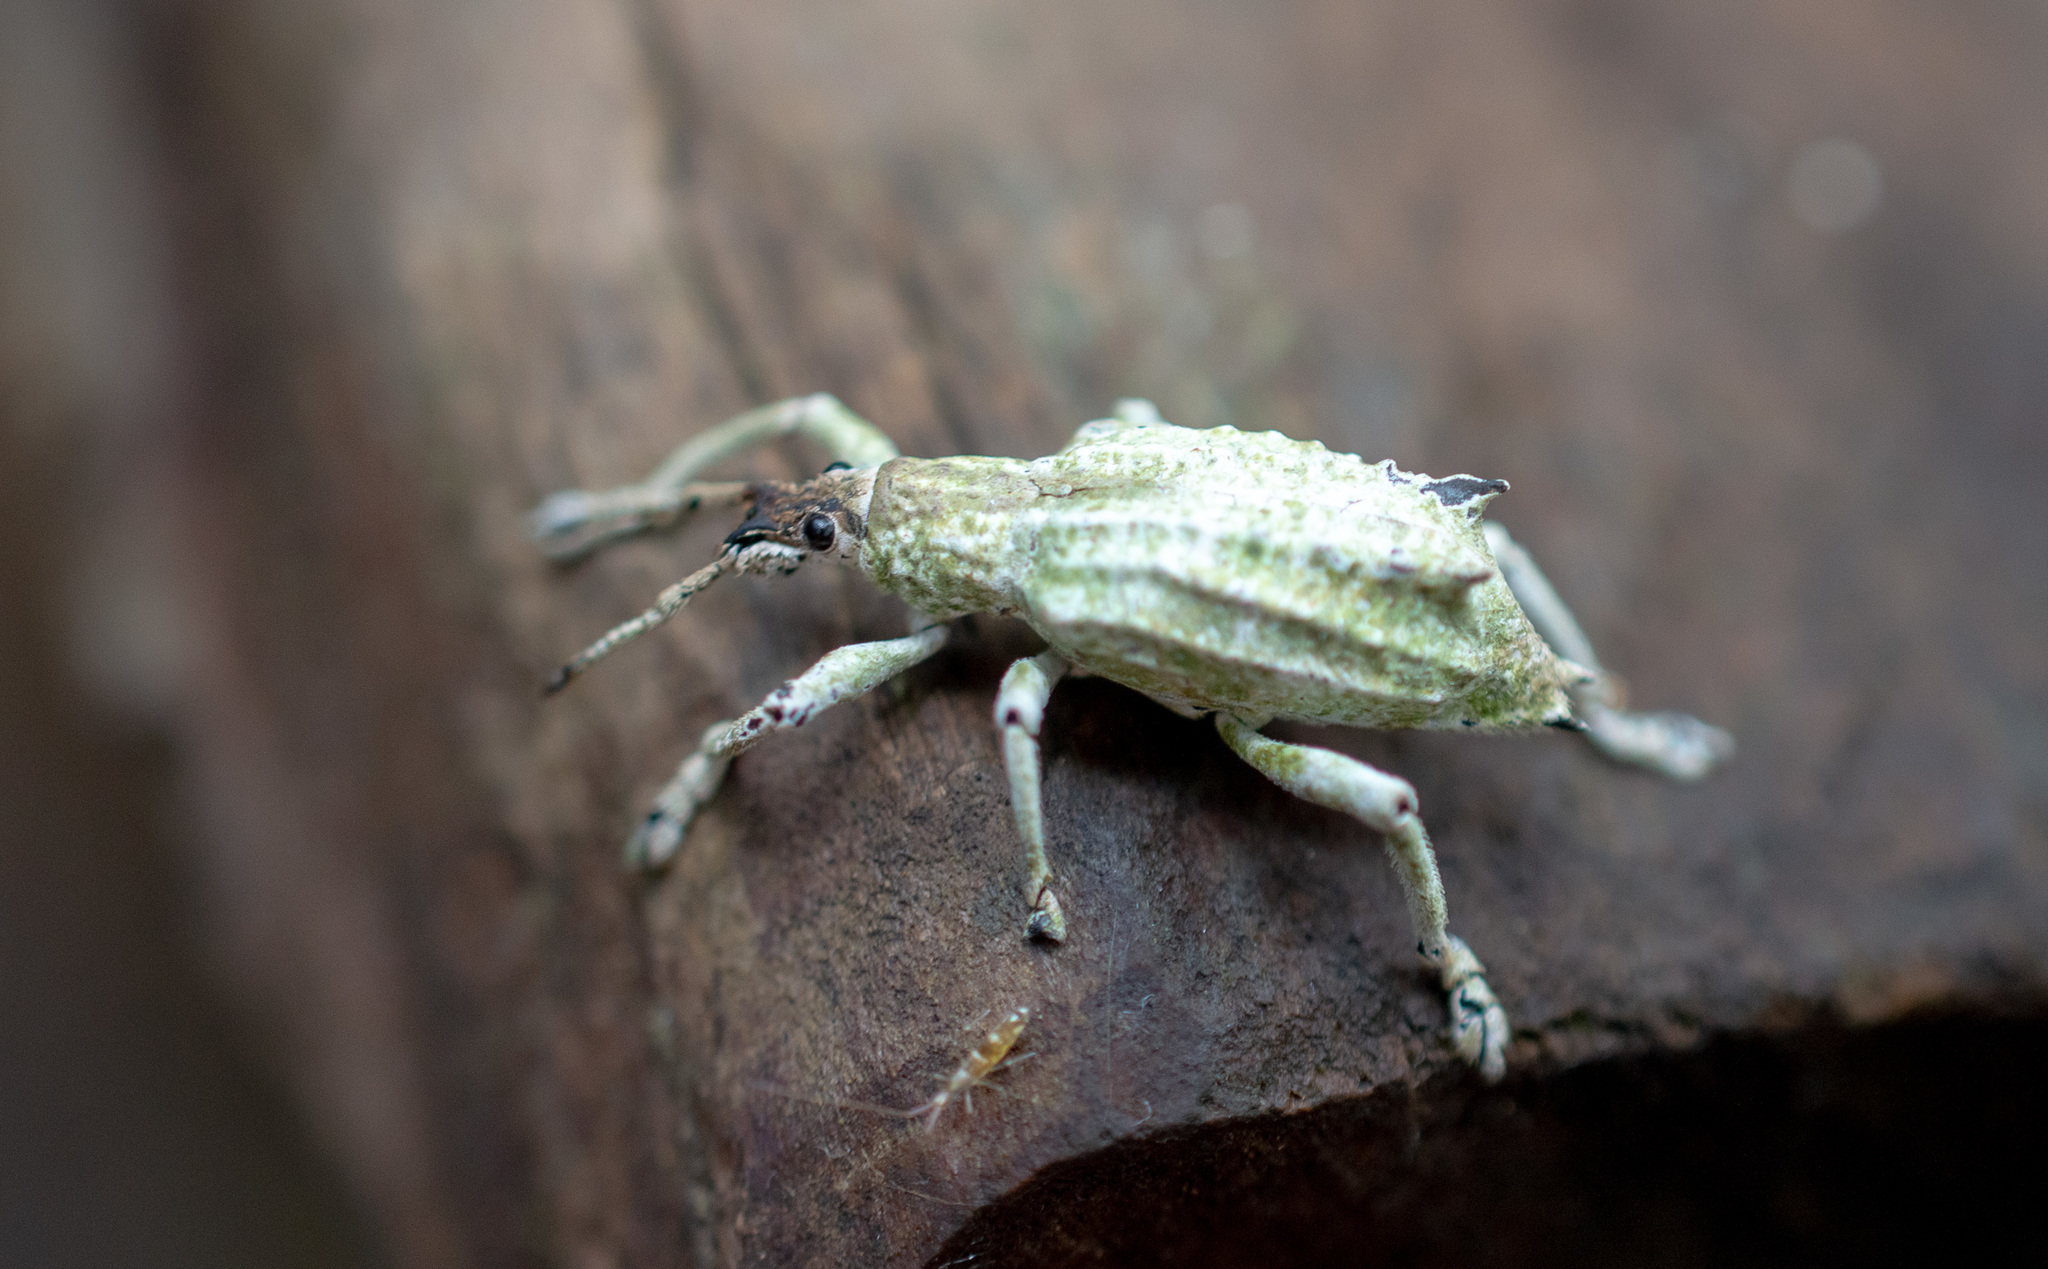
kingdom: Animalia
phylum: Arthropoda
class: Insecta
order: Coleoptera
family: Curculionidae
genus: Compsus
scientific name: Compsus niveus
